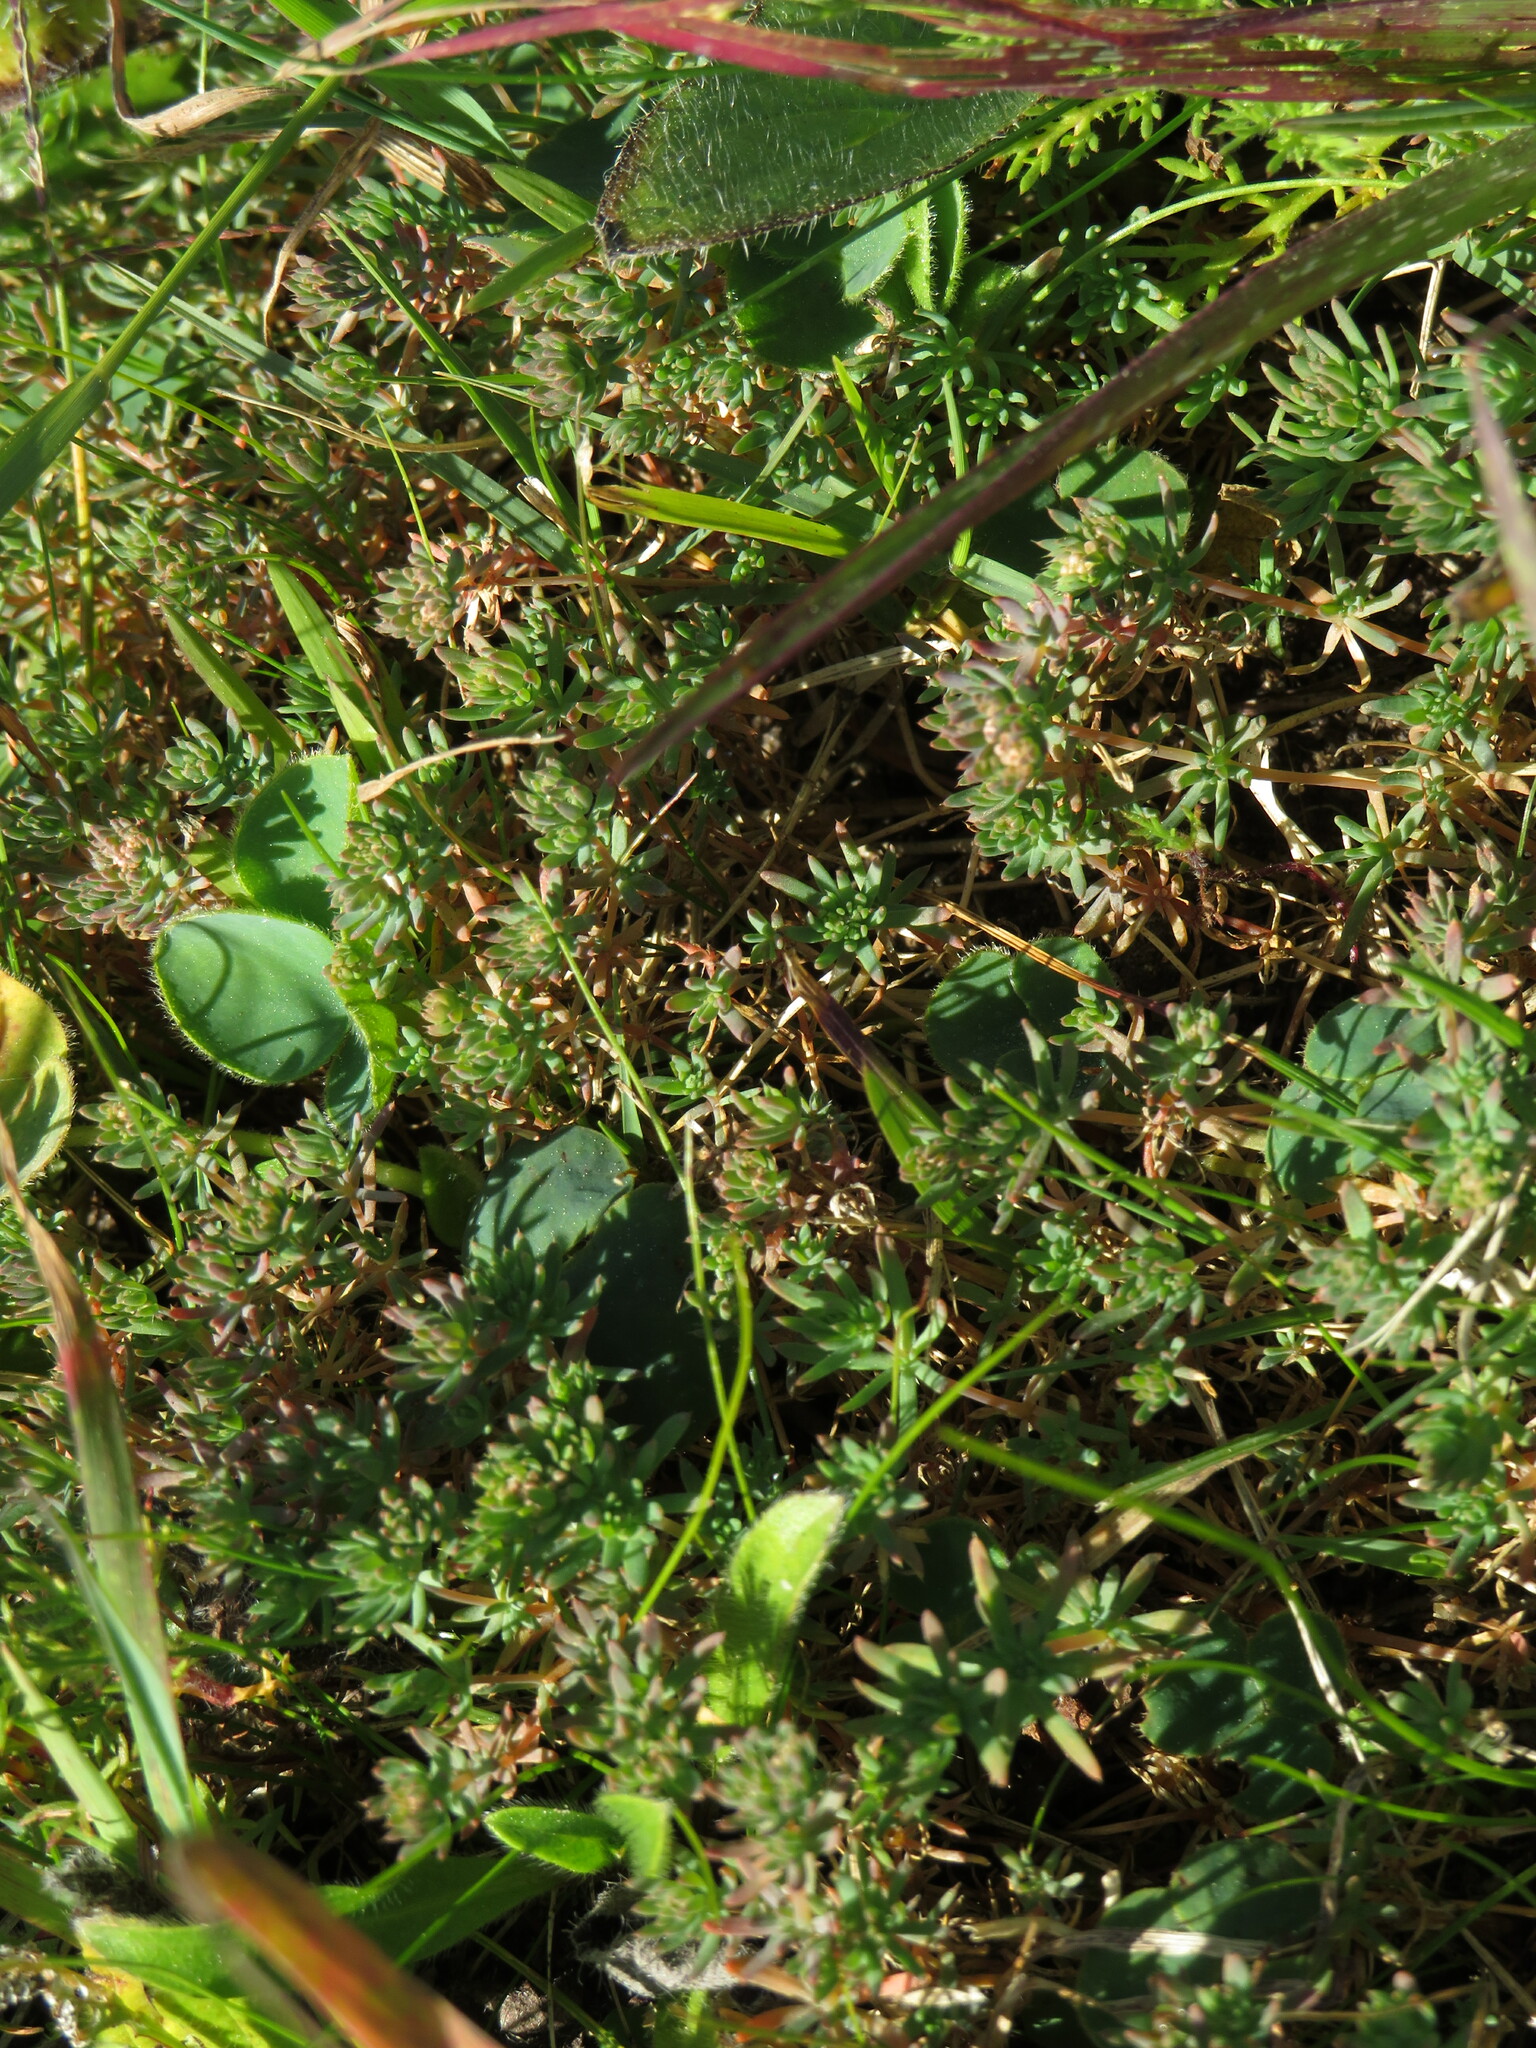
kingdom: Plantae
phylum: Tracheophyta
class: Magnoliopsida
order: Caryophyllales
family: Molluginaceae
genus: Adenogramma
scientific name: Adenogramma glomerata
